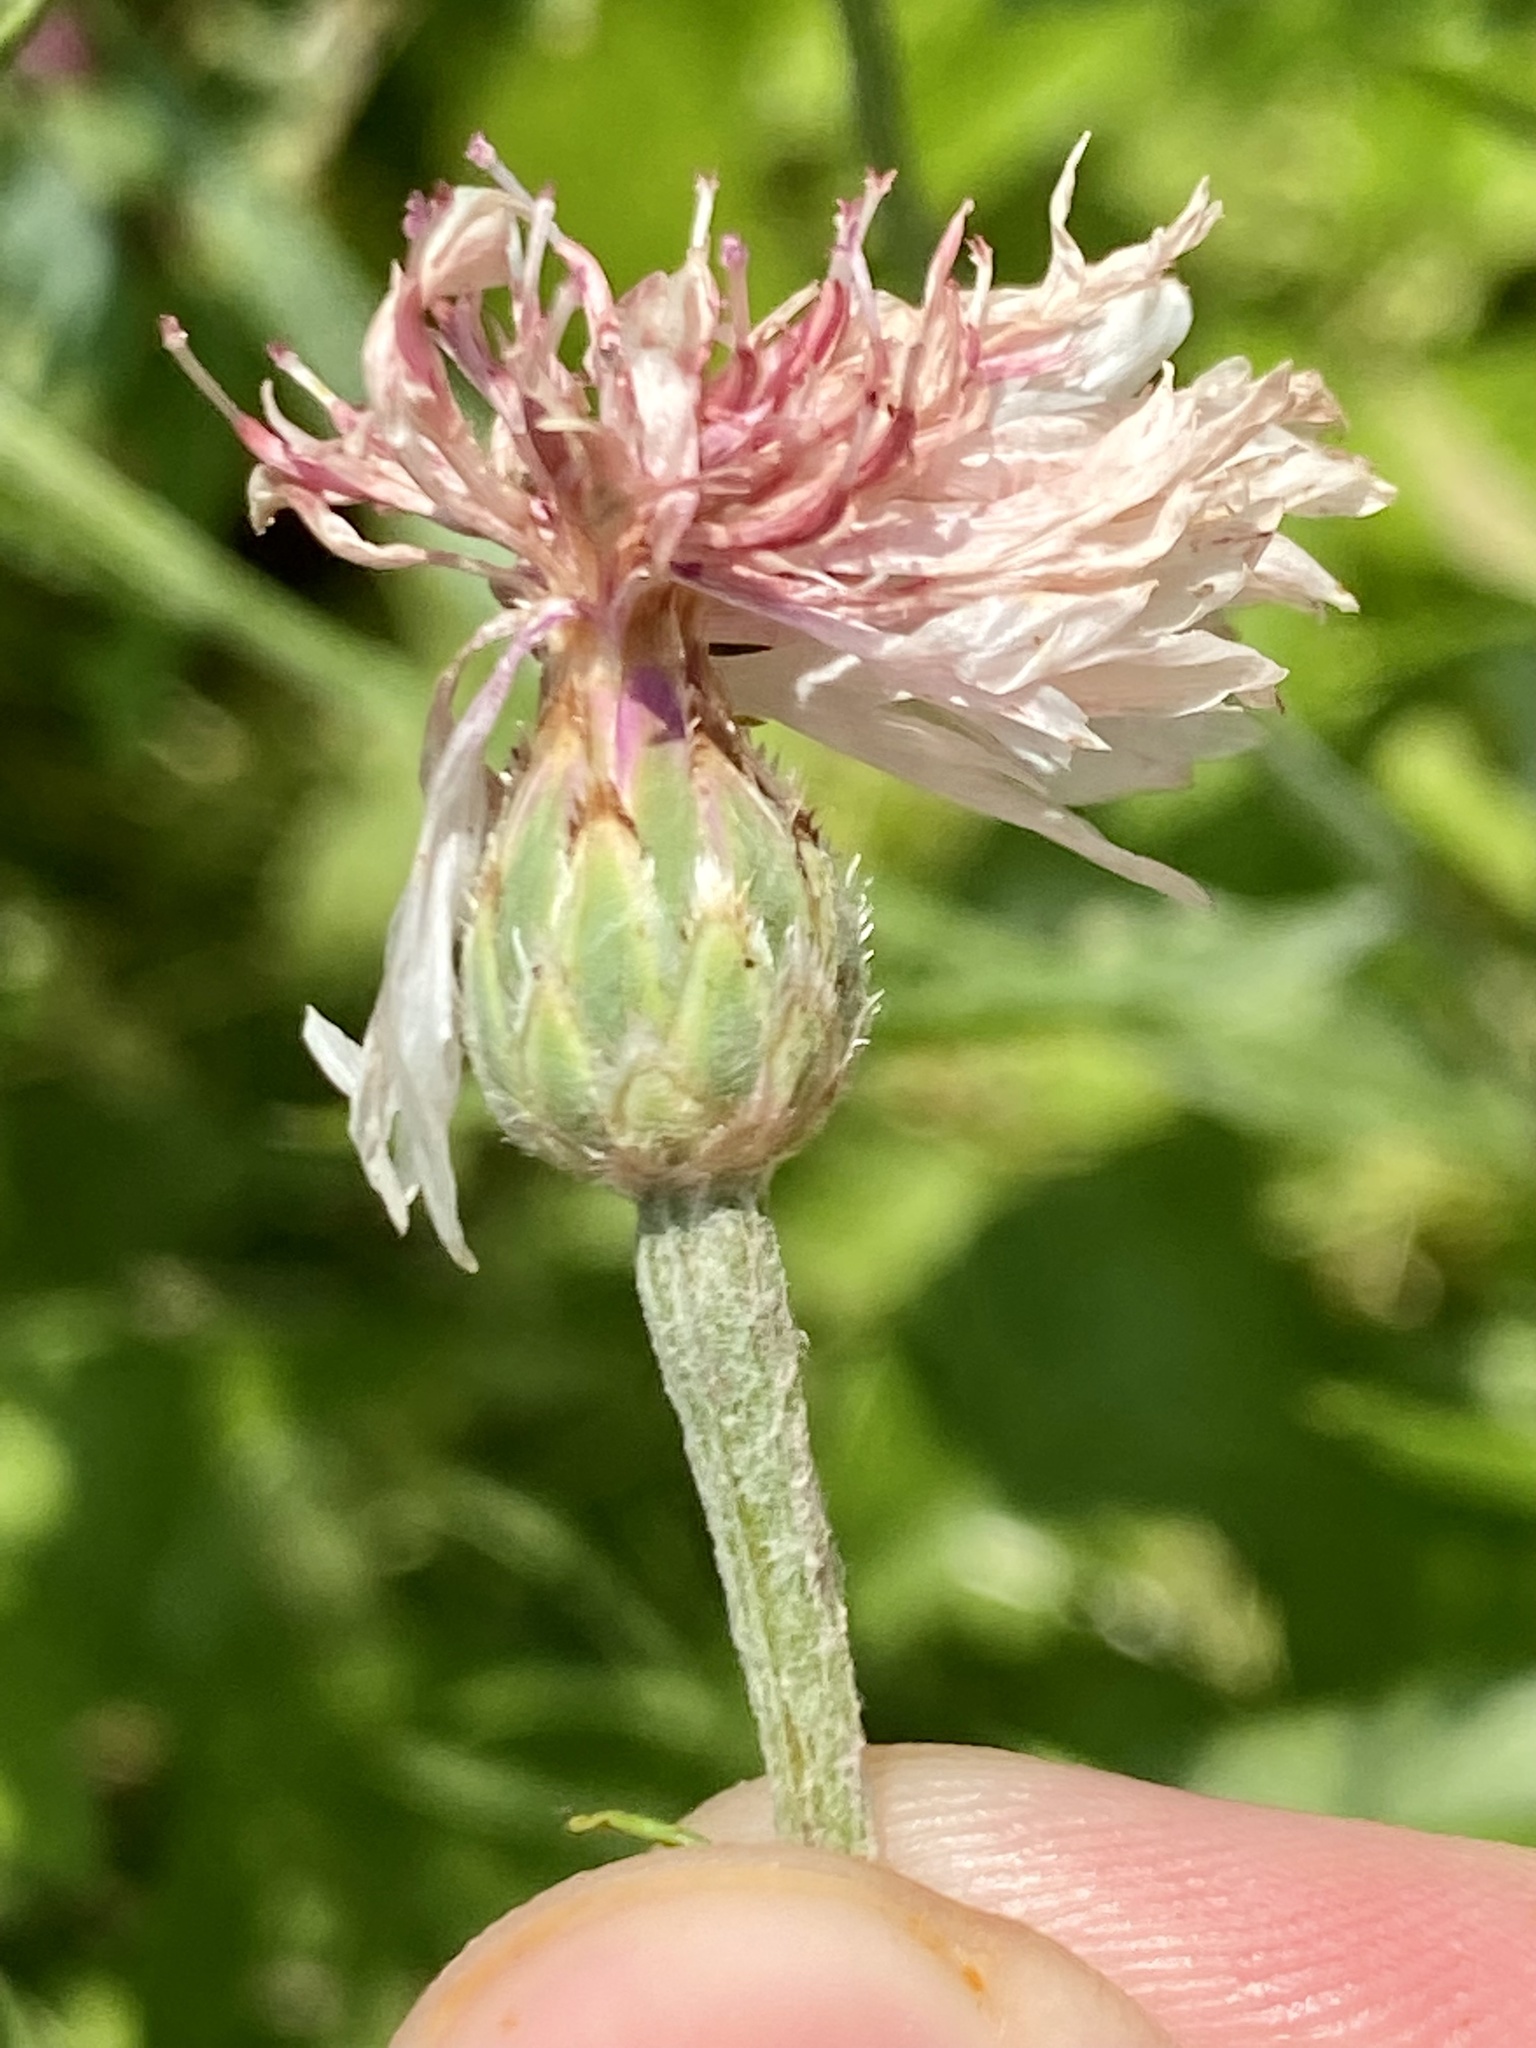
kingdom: Plantae
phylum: Tracheophyta
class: Magnoliopsida
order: Asterales
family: Asteraceae
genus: Centaurea
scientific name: Centaurea cyanus
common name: Cornflower
